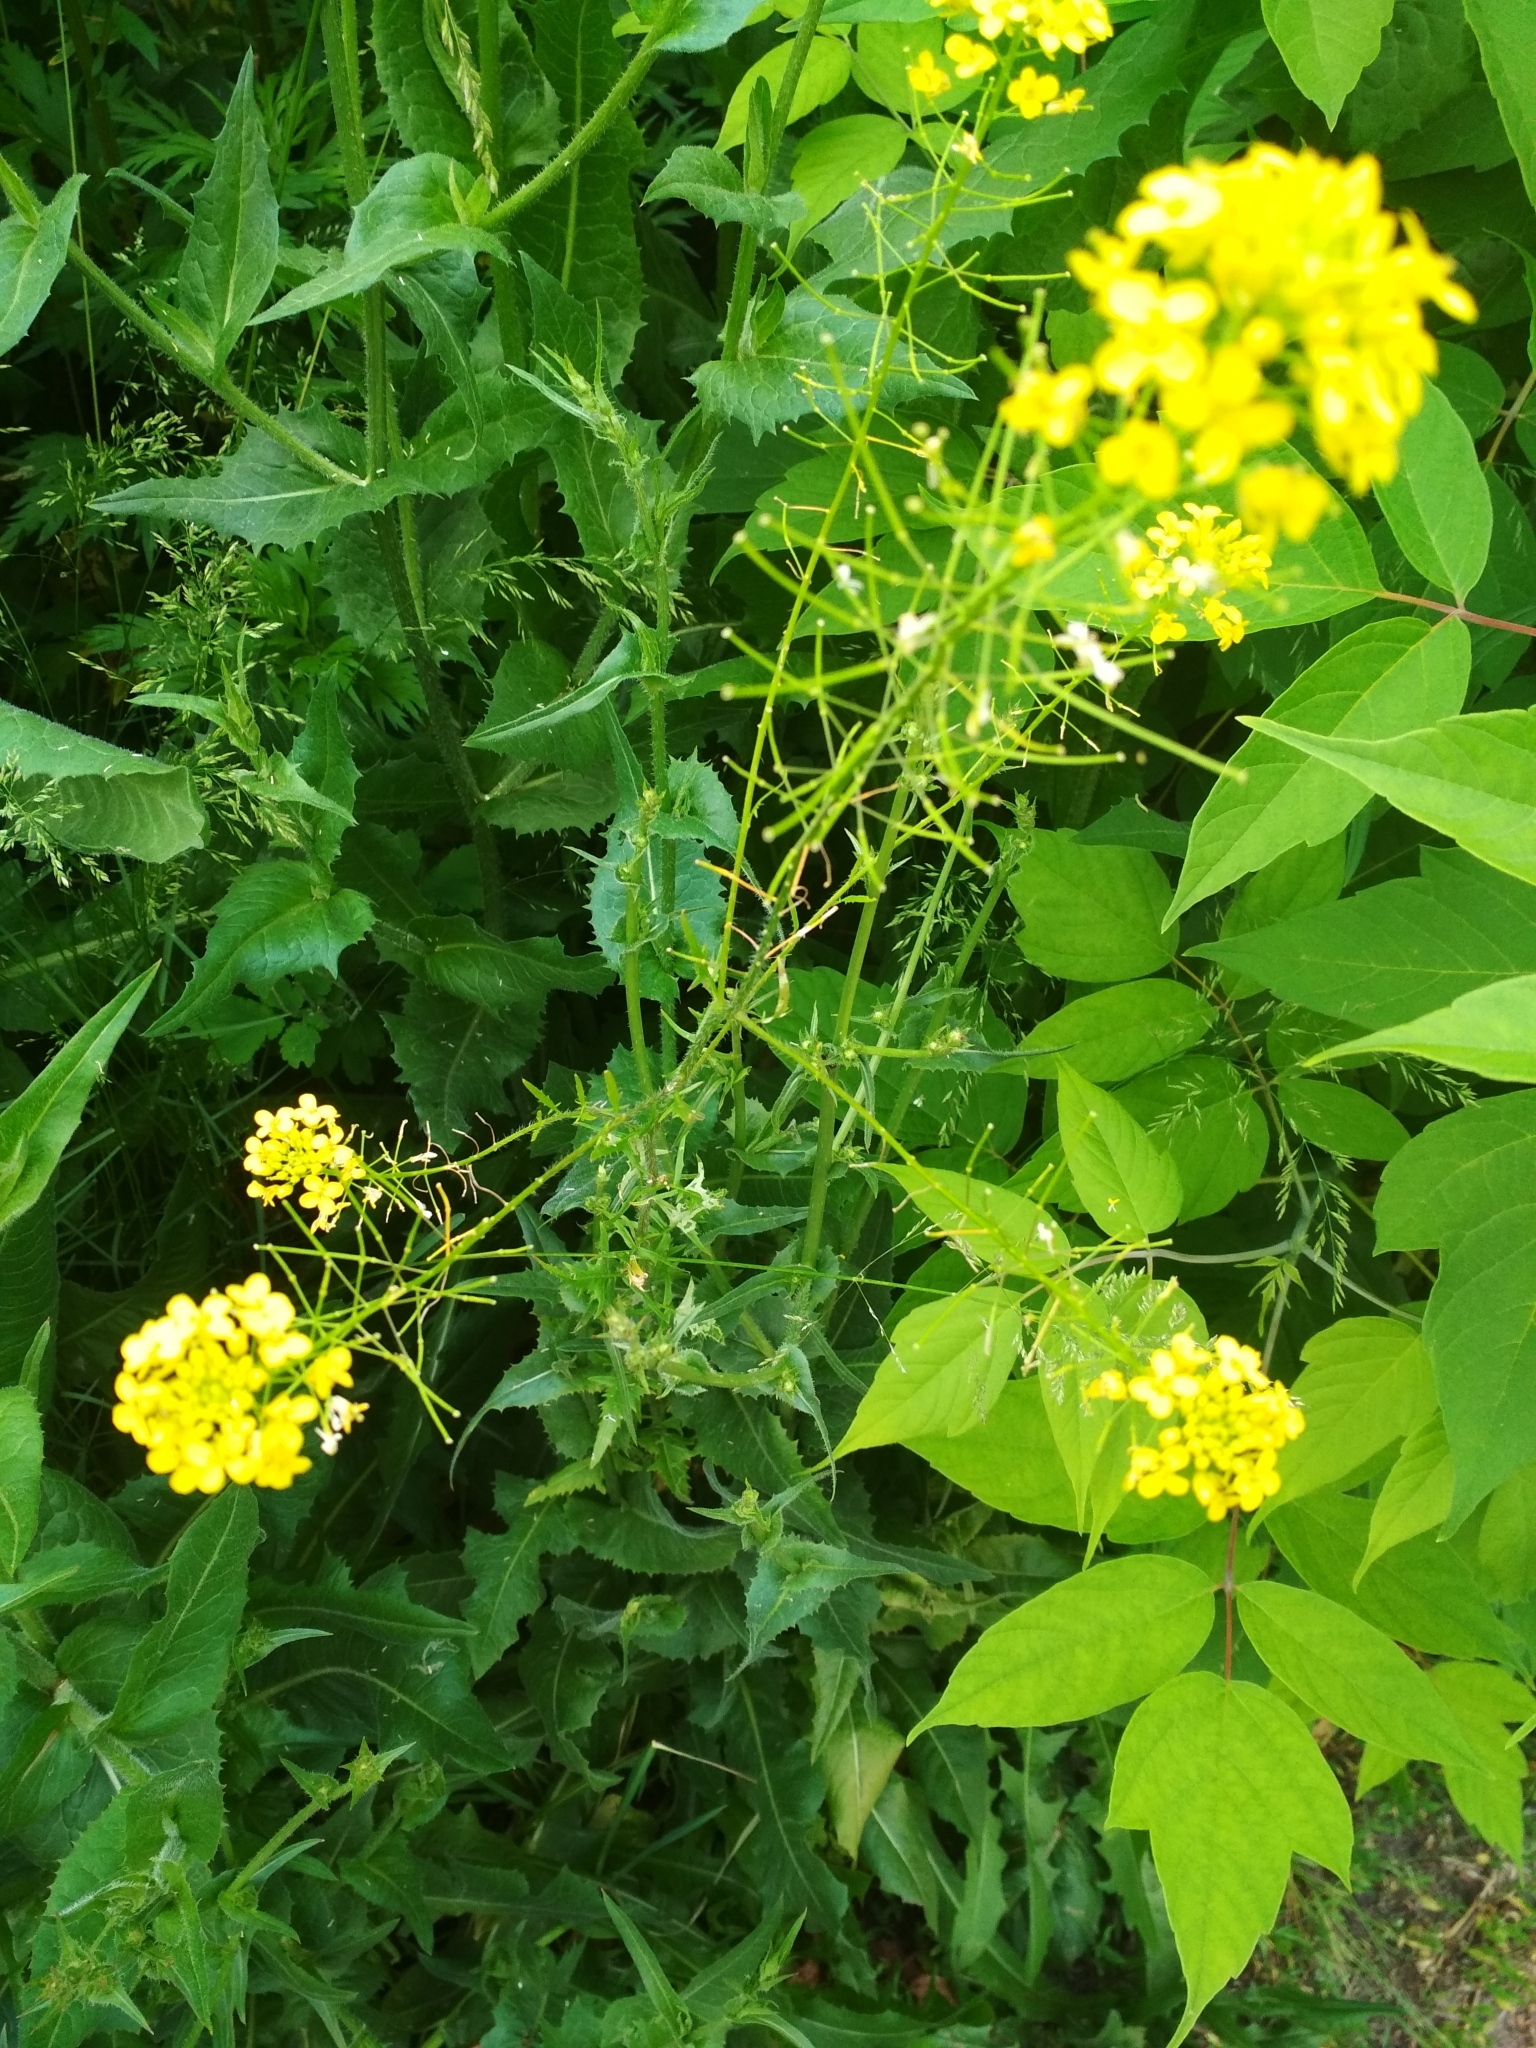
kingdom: Plantae
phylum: Tracheophyta
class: Magnoliopsida
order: Brassicales
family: Brassicaceae
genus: Sisymbrium
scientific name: Sisymbrium loeselii
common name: False london-rocket
